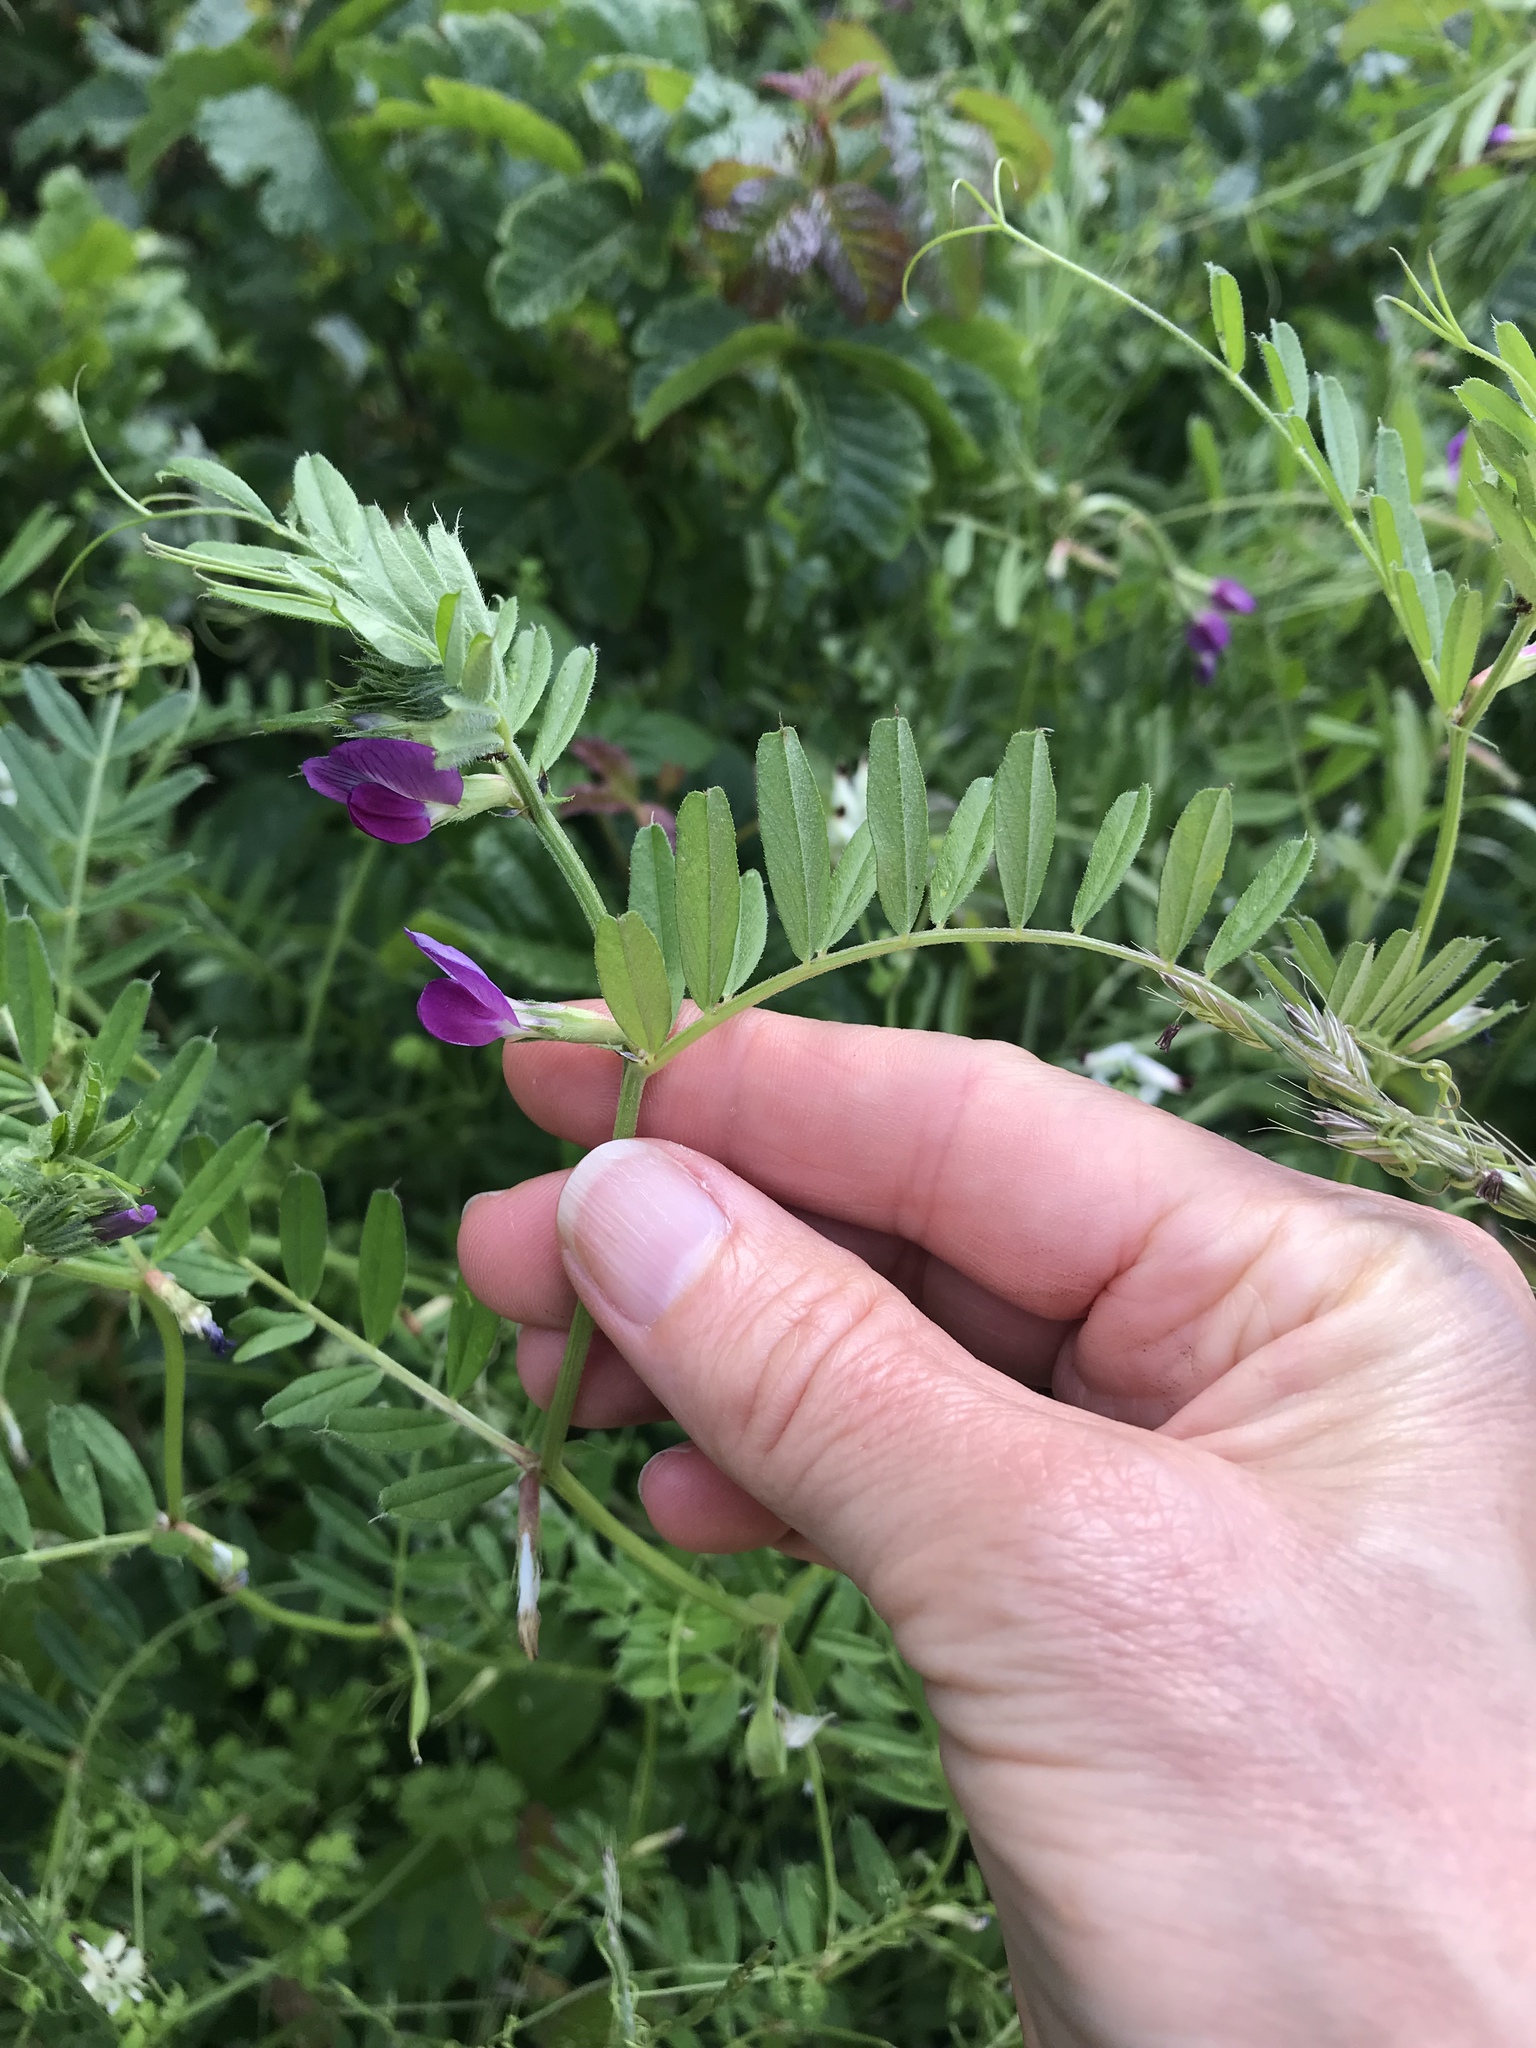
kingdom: Plantae
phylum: Tracheophyta
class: Magnoliopsida
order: Fabales
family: Fabaceae
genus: Vicia
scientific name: Vicia sativa
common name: Garden vetch
